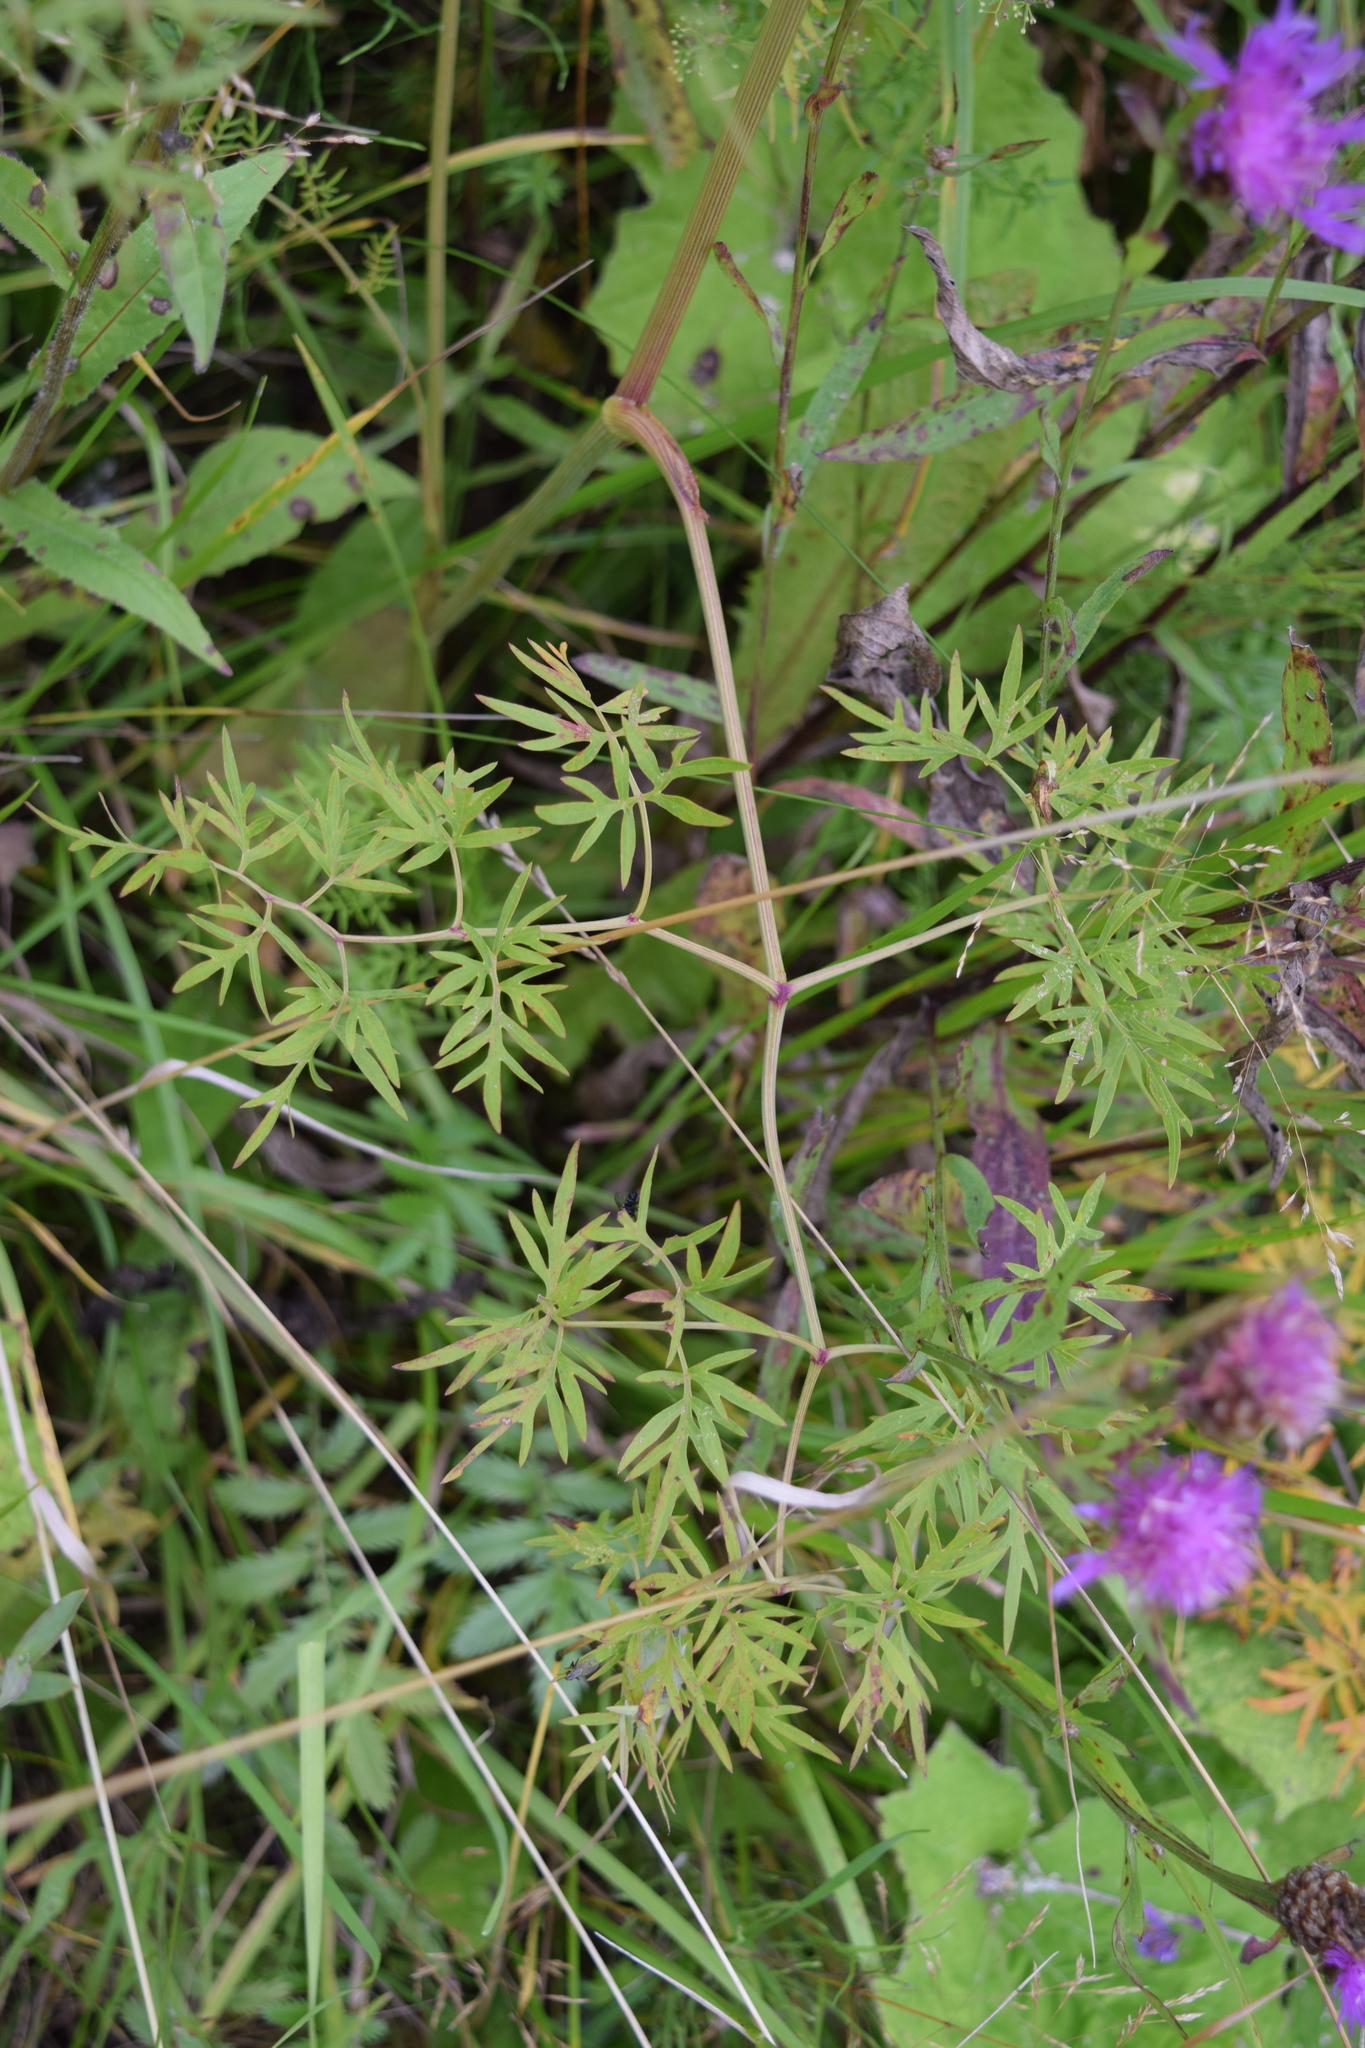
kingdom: Plantae
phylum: Tracheophyta
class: Magnoliopsida
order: Apiales
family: Apiaceae
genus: Cenolophium
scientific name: Cenolophium fischeri
